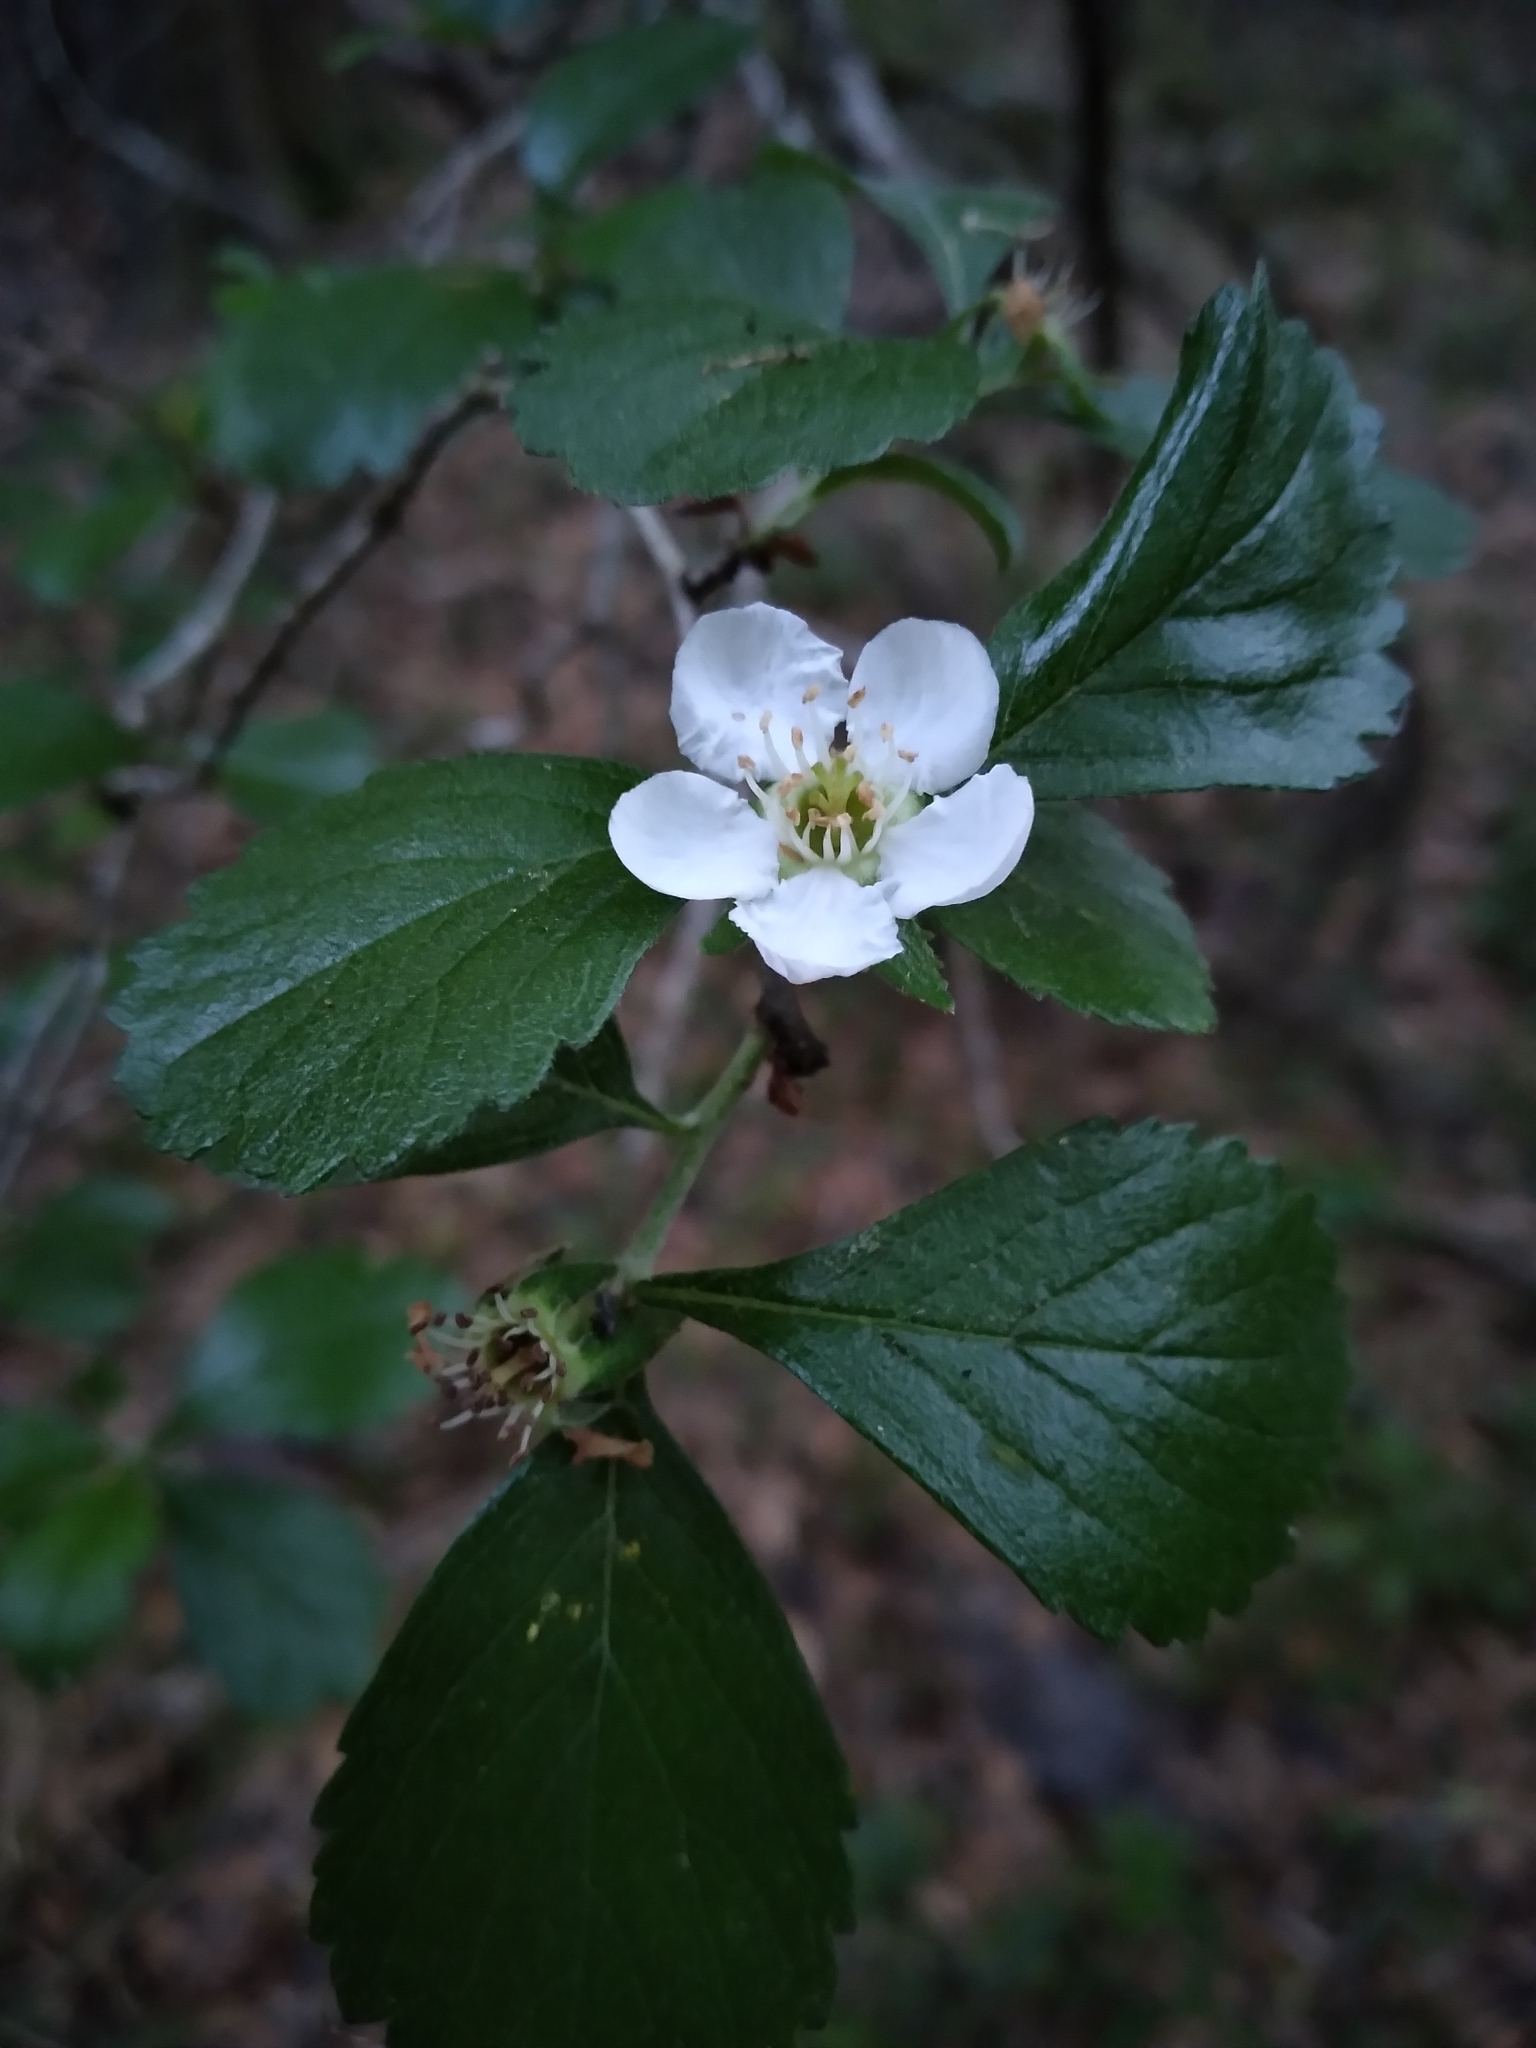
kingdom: Plantae
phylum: Tracheophyta
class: Magnoliopsida
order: Rosales
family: Rosaceae
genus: Crataegus
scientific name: Crataegus uniflora
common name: One-flower hawthorn
